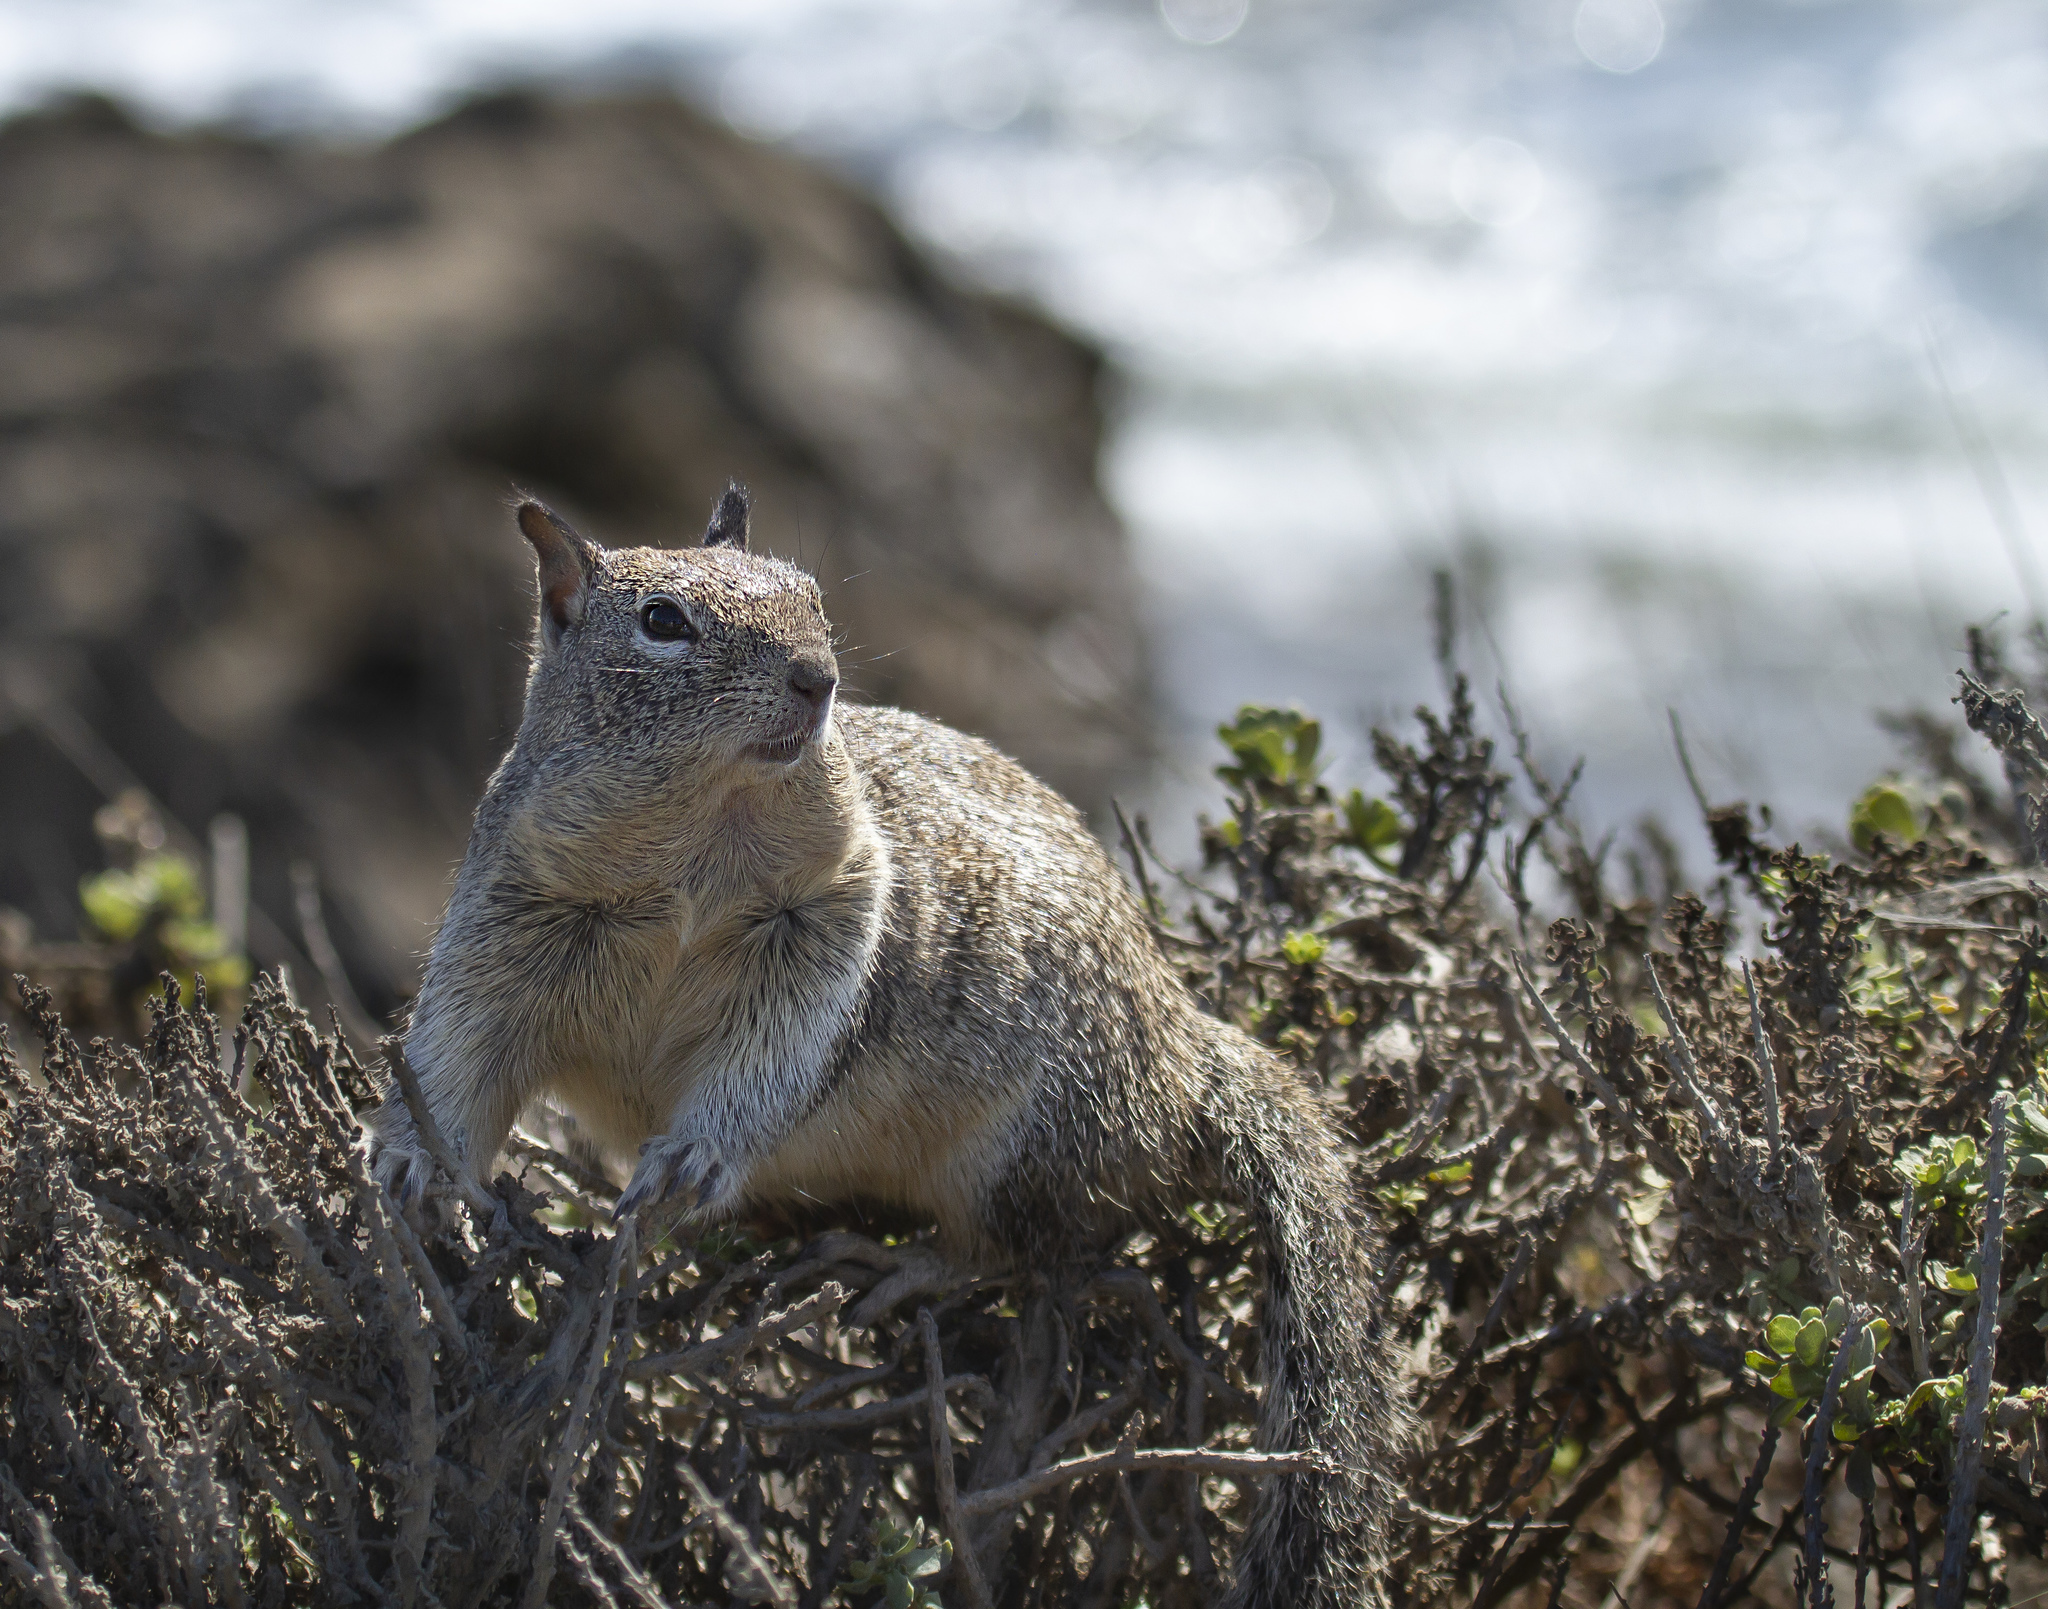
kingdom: Animalia
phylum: Chordata
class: Mammalia
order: Rodentia
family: Sciuridae
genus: Otospermophilus
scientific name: Otospermophilus beecheyi
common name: California ground squirrel
